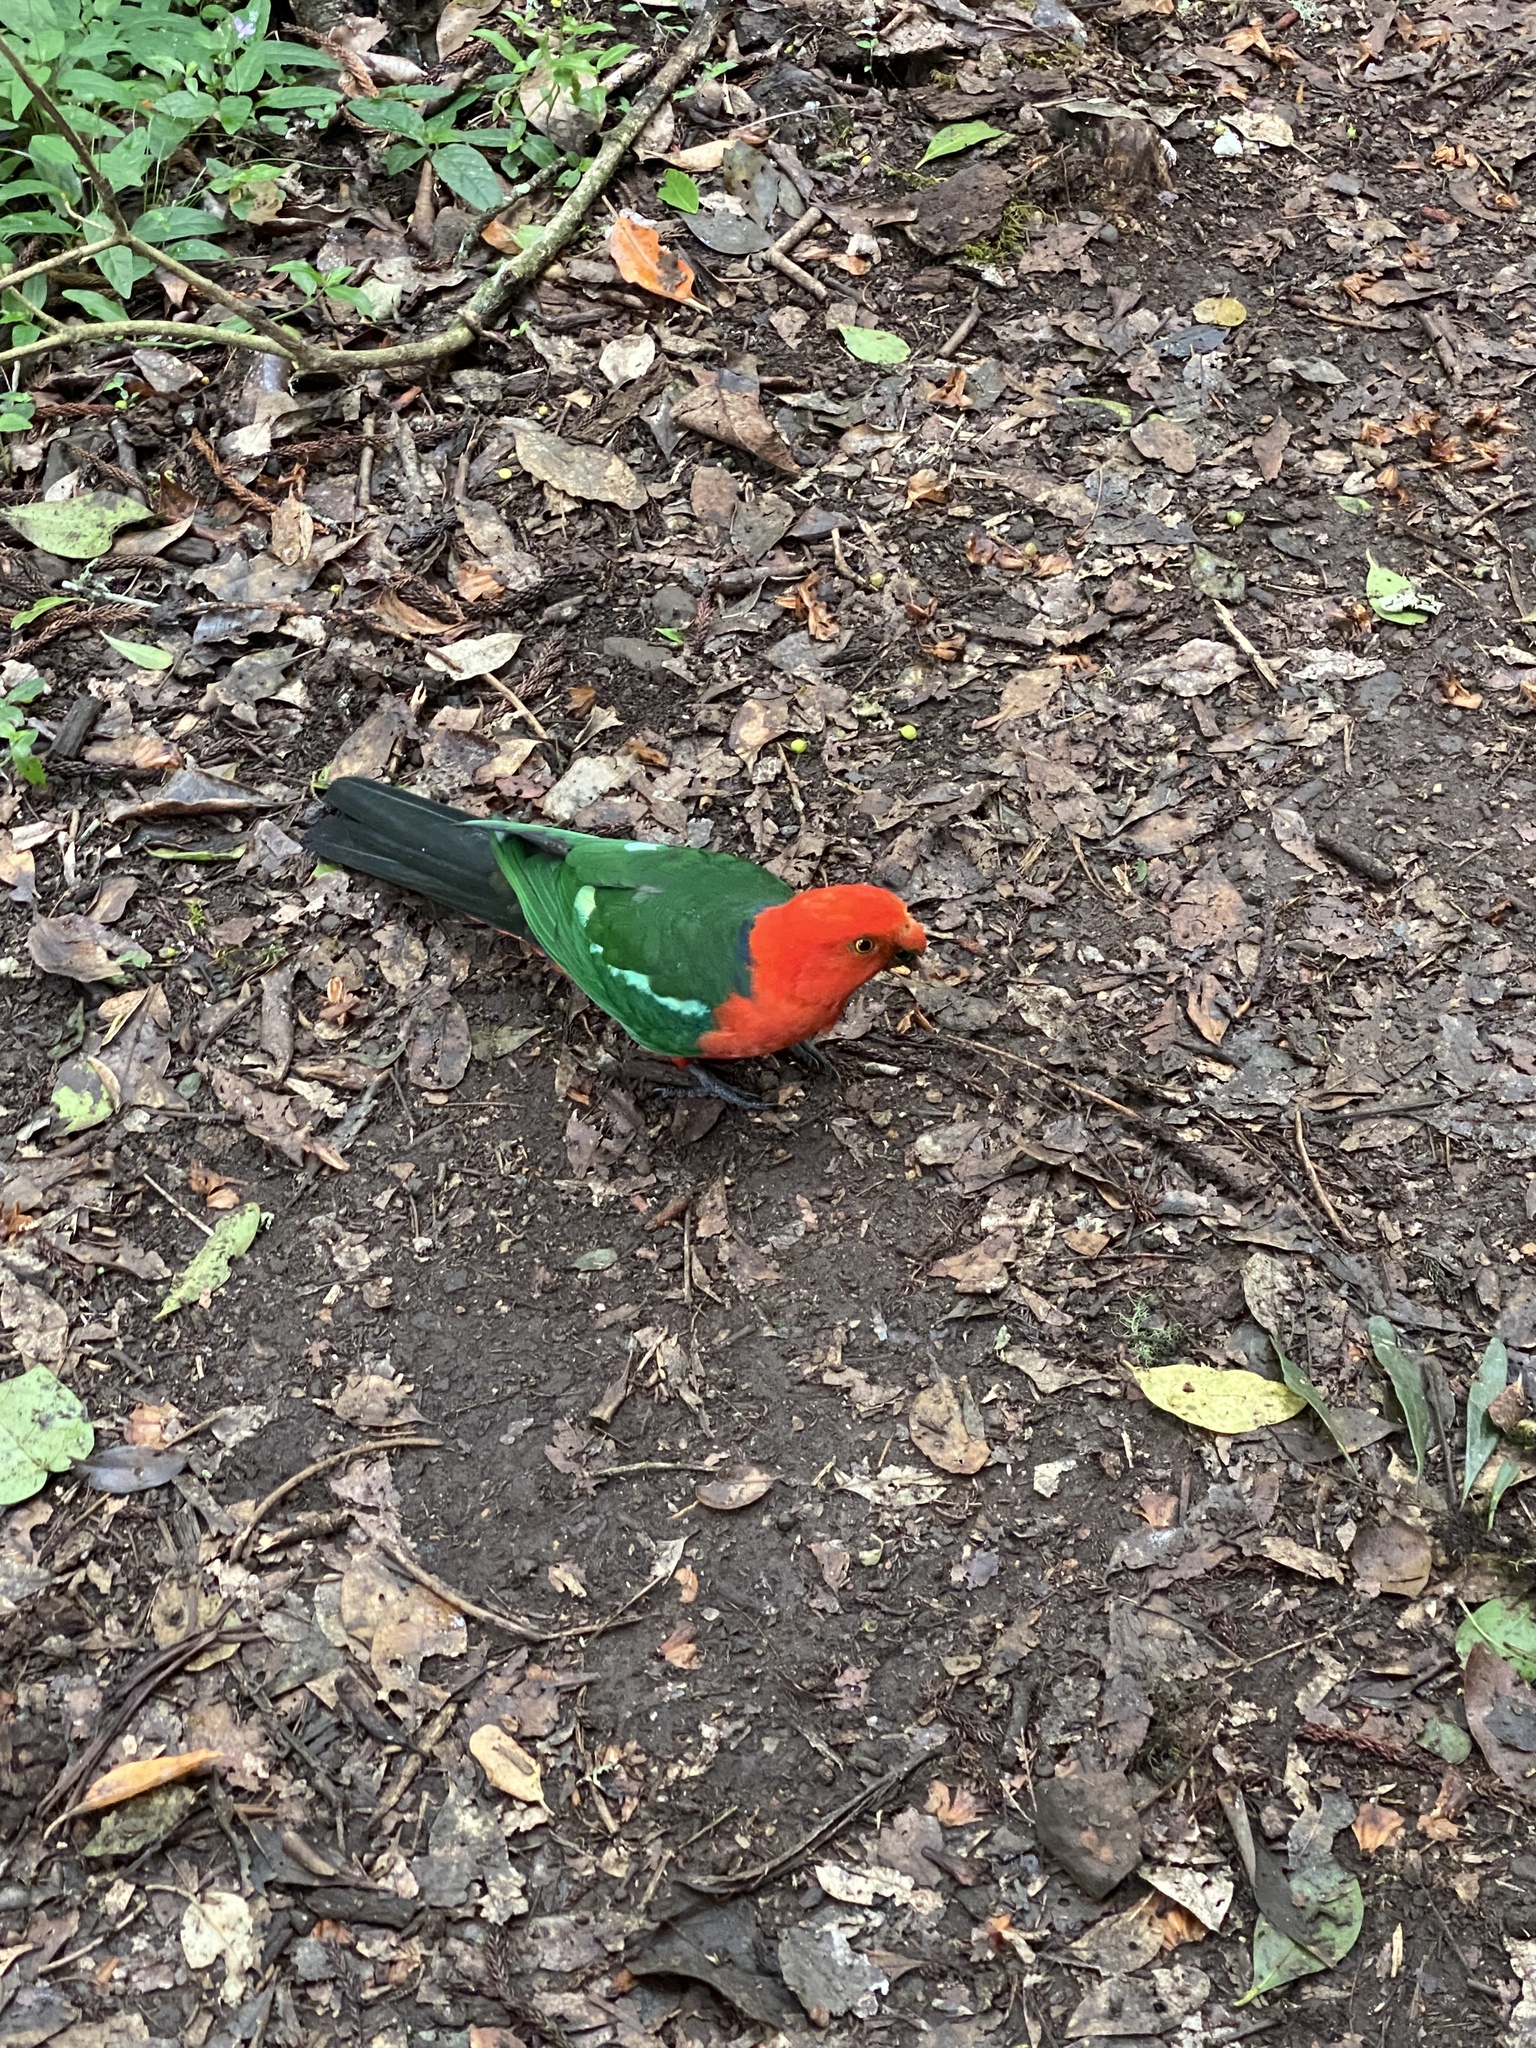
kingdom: Animalia
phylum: Chordata
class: Aves
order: Psittaciformes
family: Psittacidae
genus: Alisterus
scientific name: Alisterus scapularis
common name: Australian king parrot
